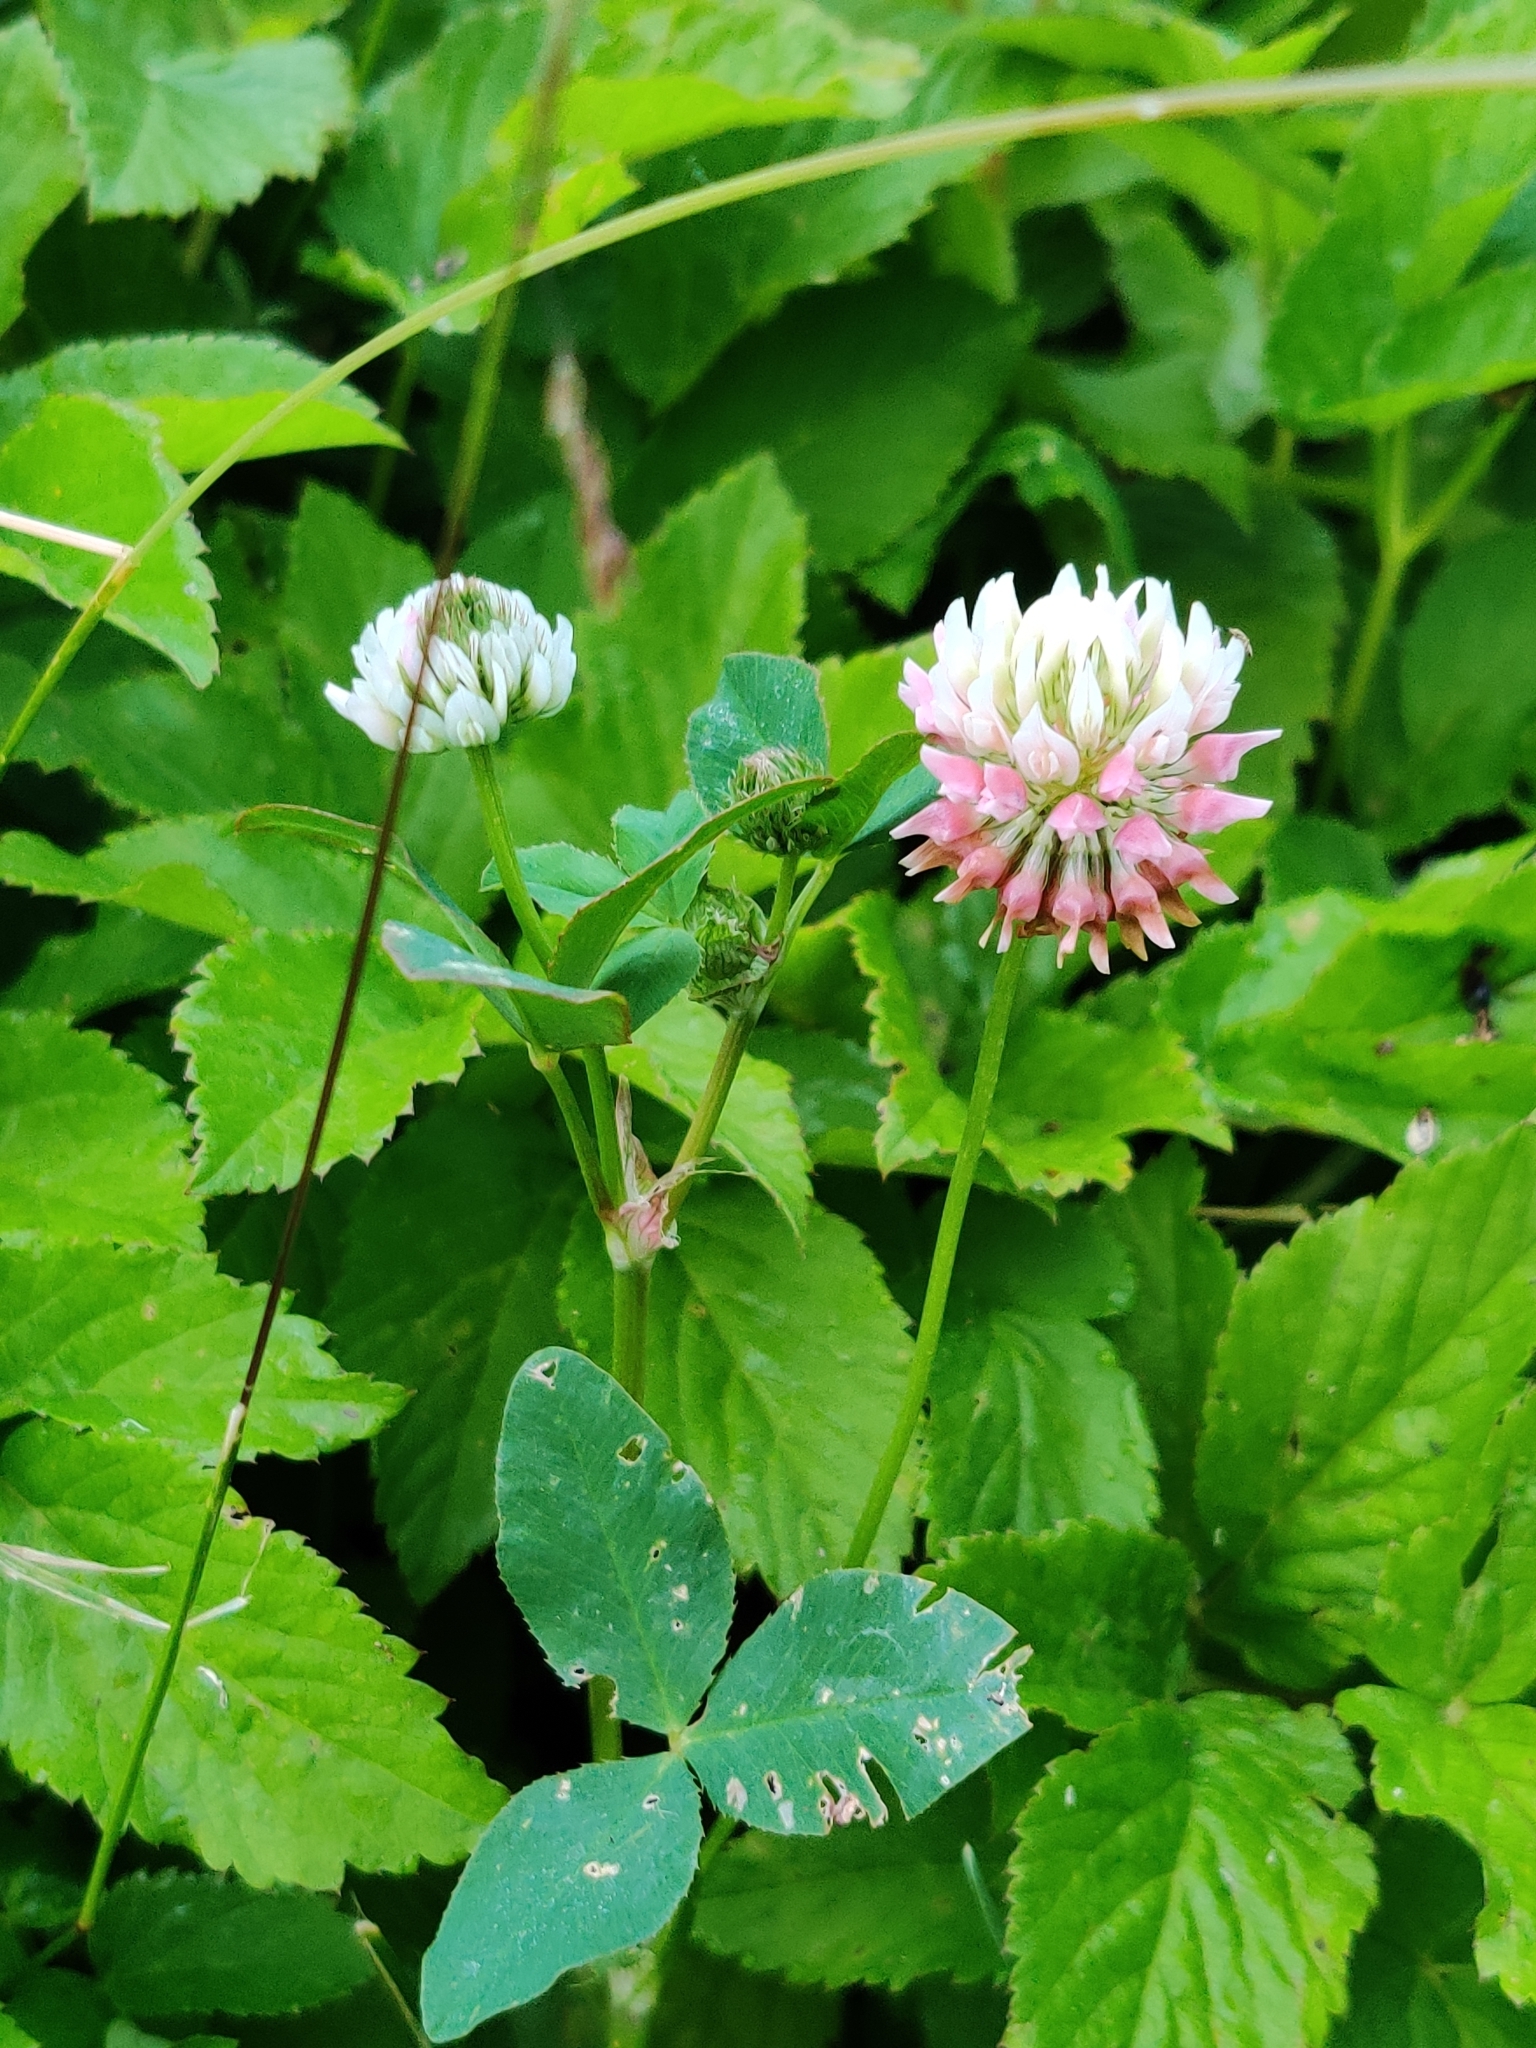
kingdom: Plantae
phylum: Tracheophyta
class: Magnoliopsida
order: Fabales
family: Fabaceae
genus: Trifolium
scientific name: Trifolium hybridum
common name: Alsike clover
